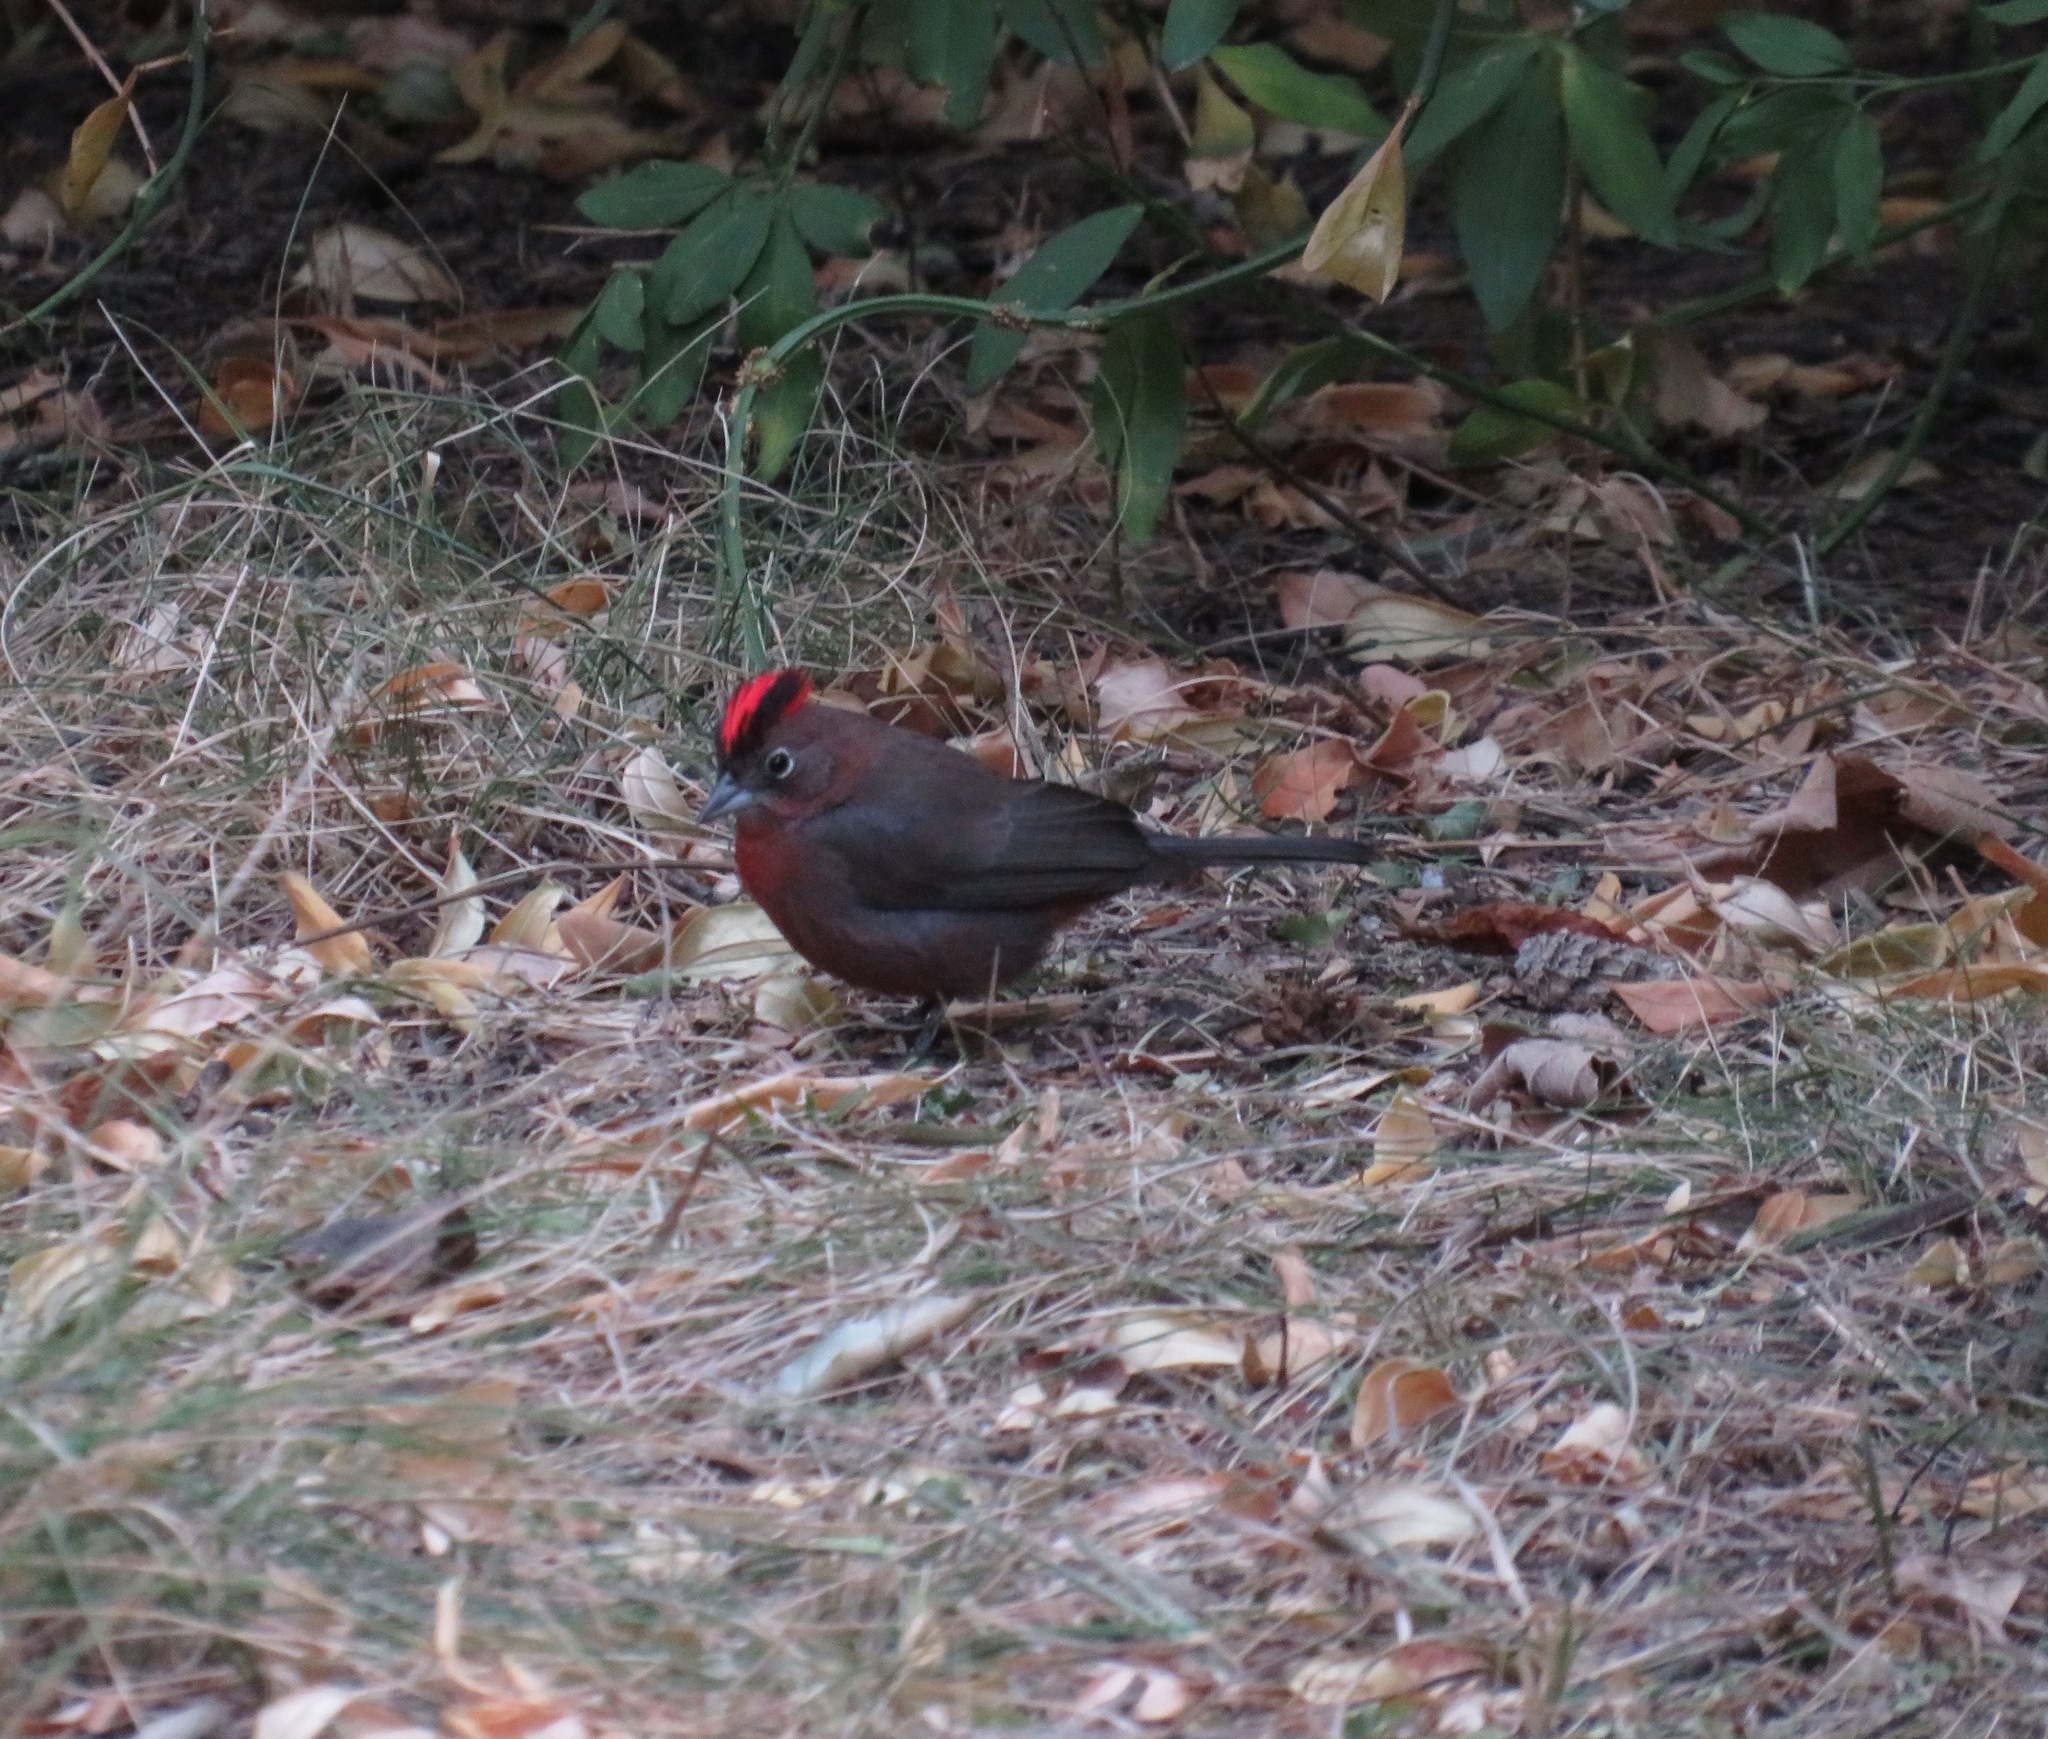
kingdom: Animalia
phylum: Chordata
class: Aves
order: Passeriformes
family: Thraupidae
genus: Coryphospingus
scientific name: Coryphospingus cucullatus
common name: Red pileated finch
